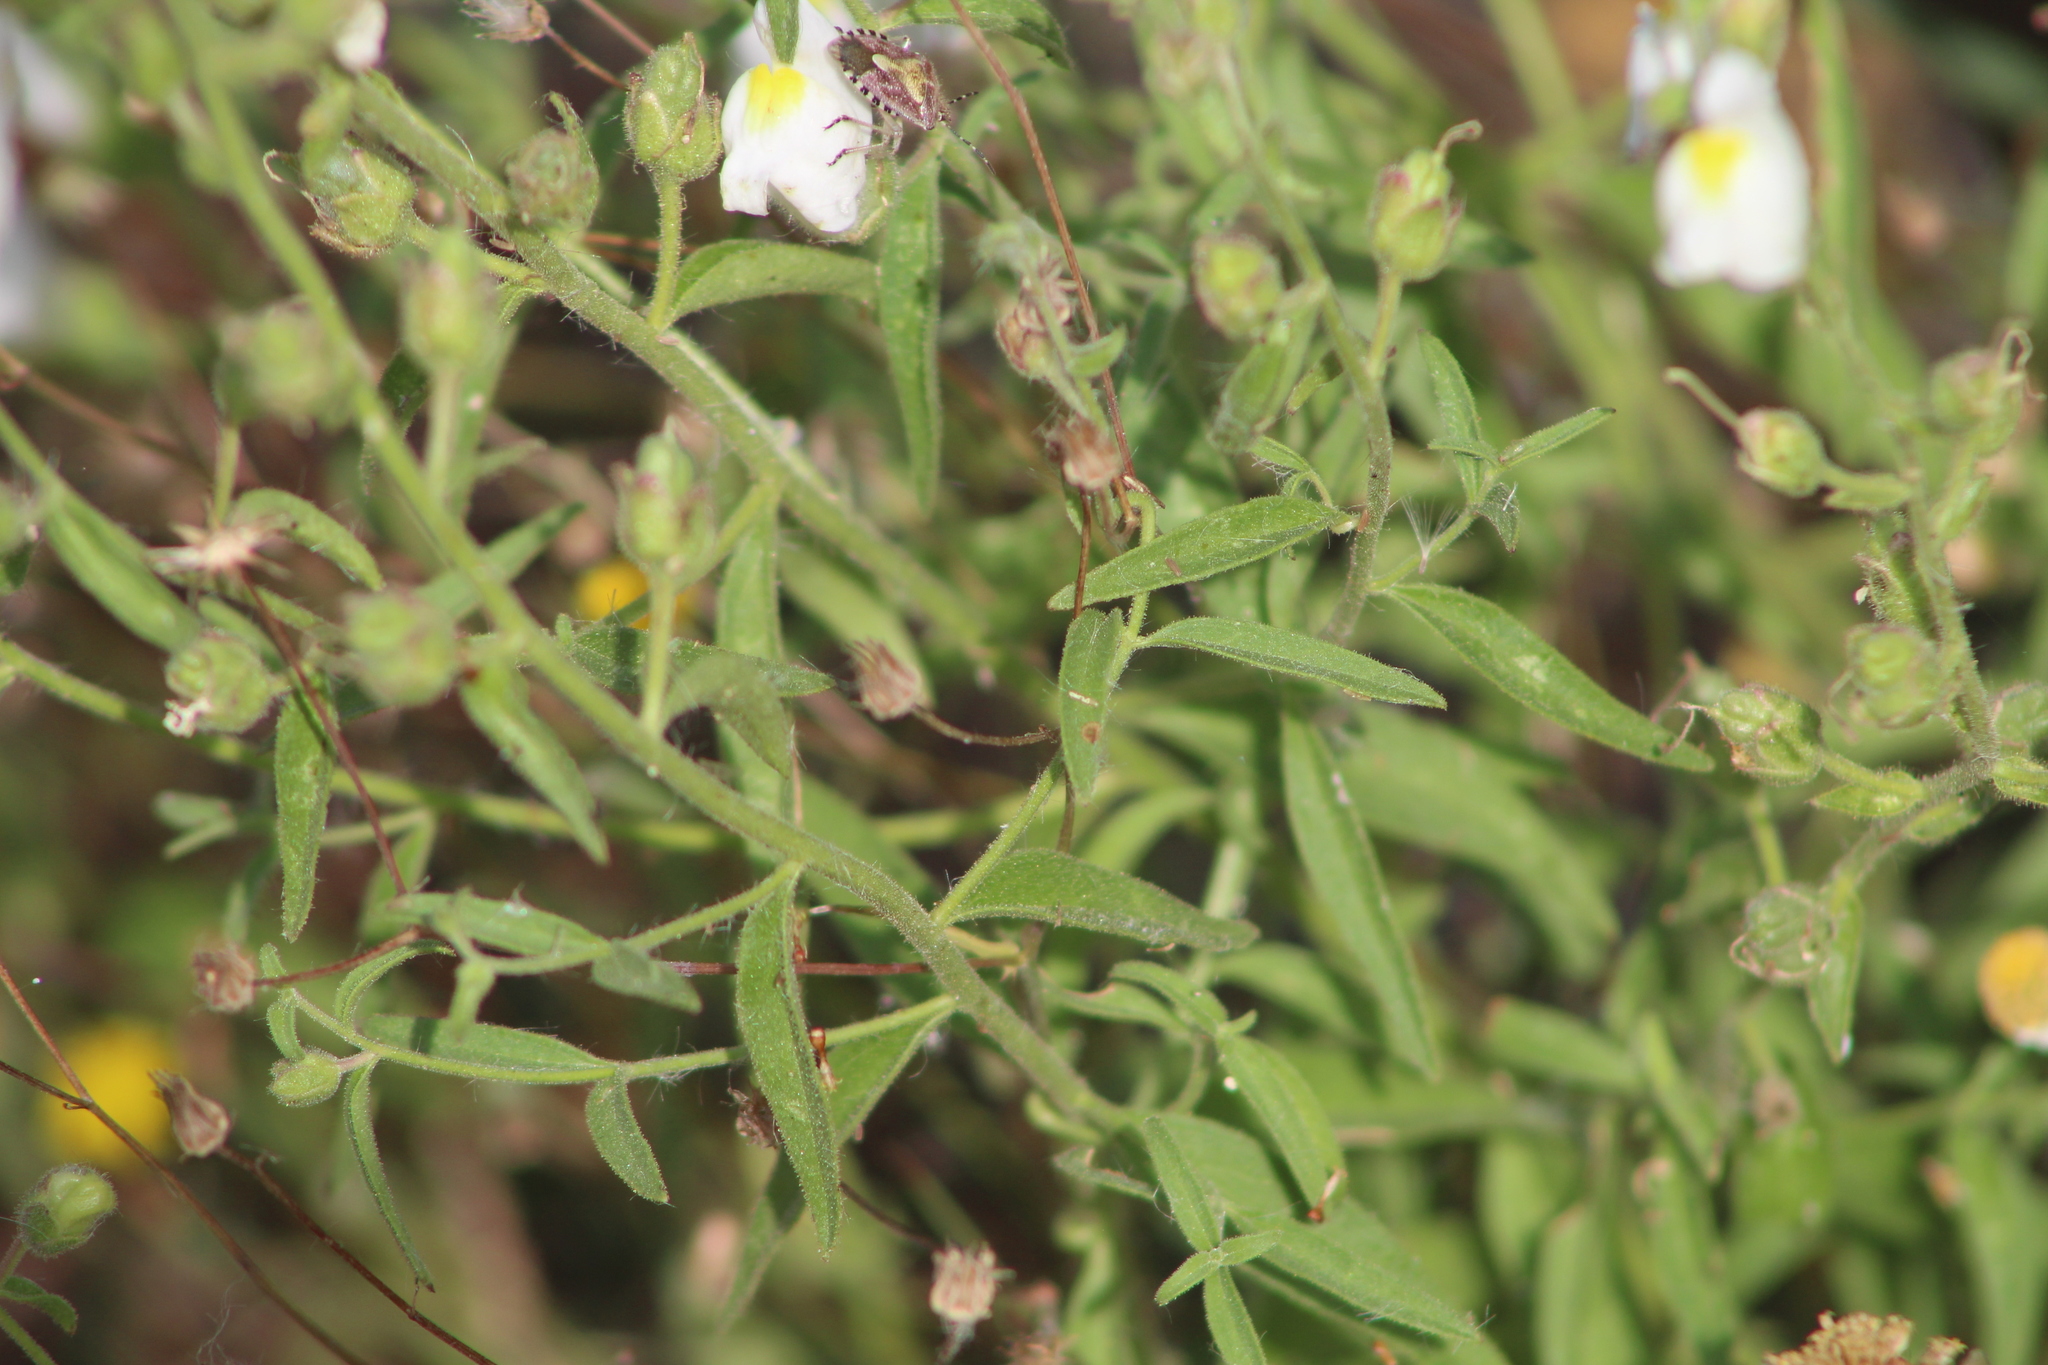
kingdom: Plantae
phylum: Tracheophyta
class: Magnoliopsida
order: Lamiales
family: Plantaginaceae
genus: Antirrhinum
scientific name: Antirrhinum graniticum
